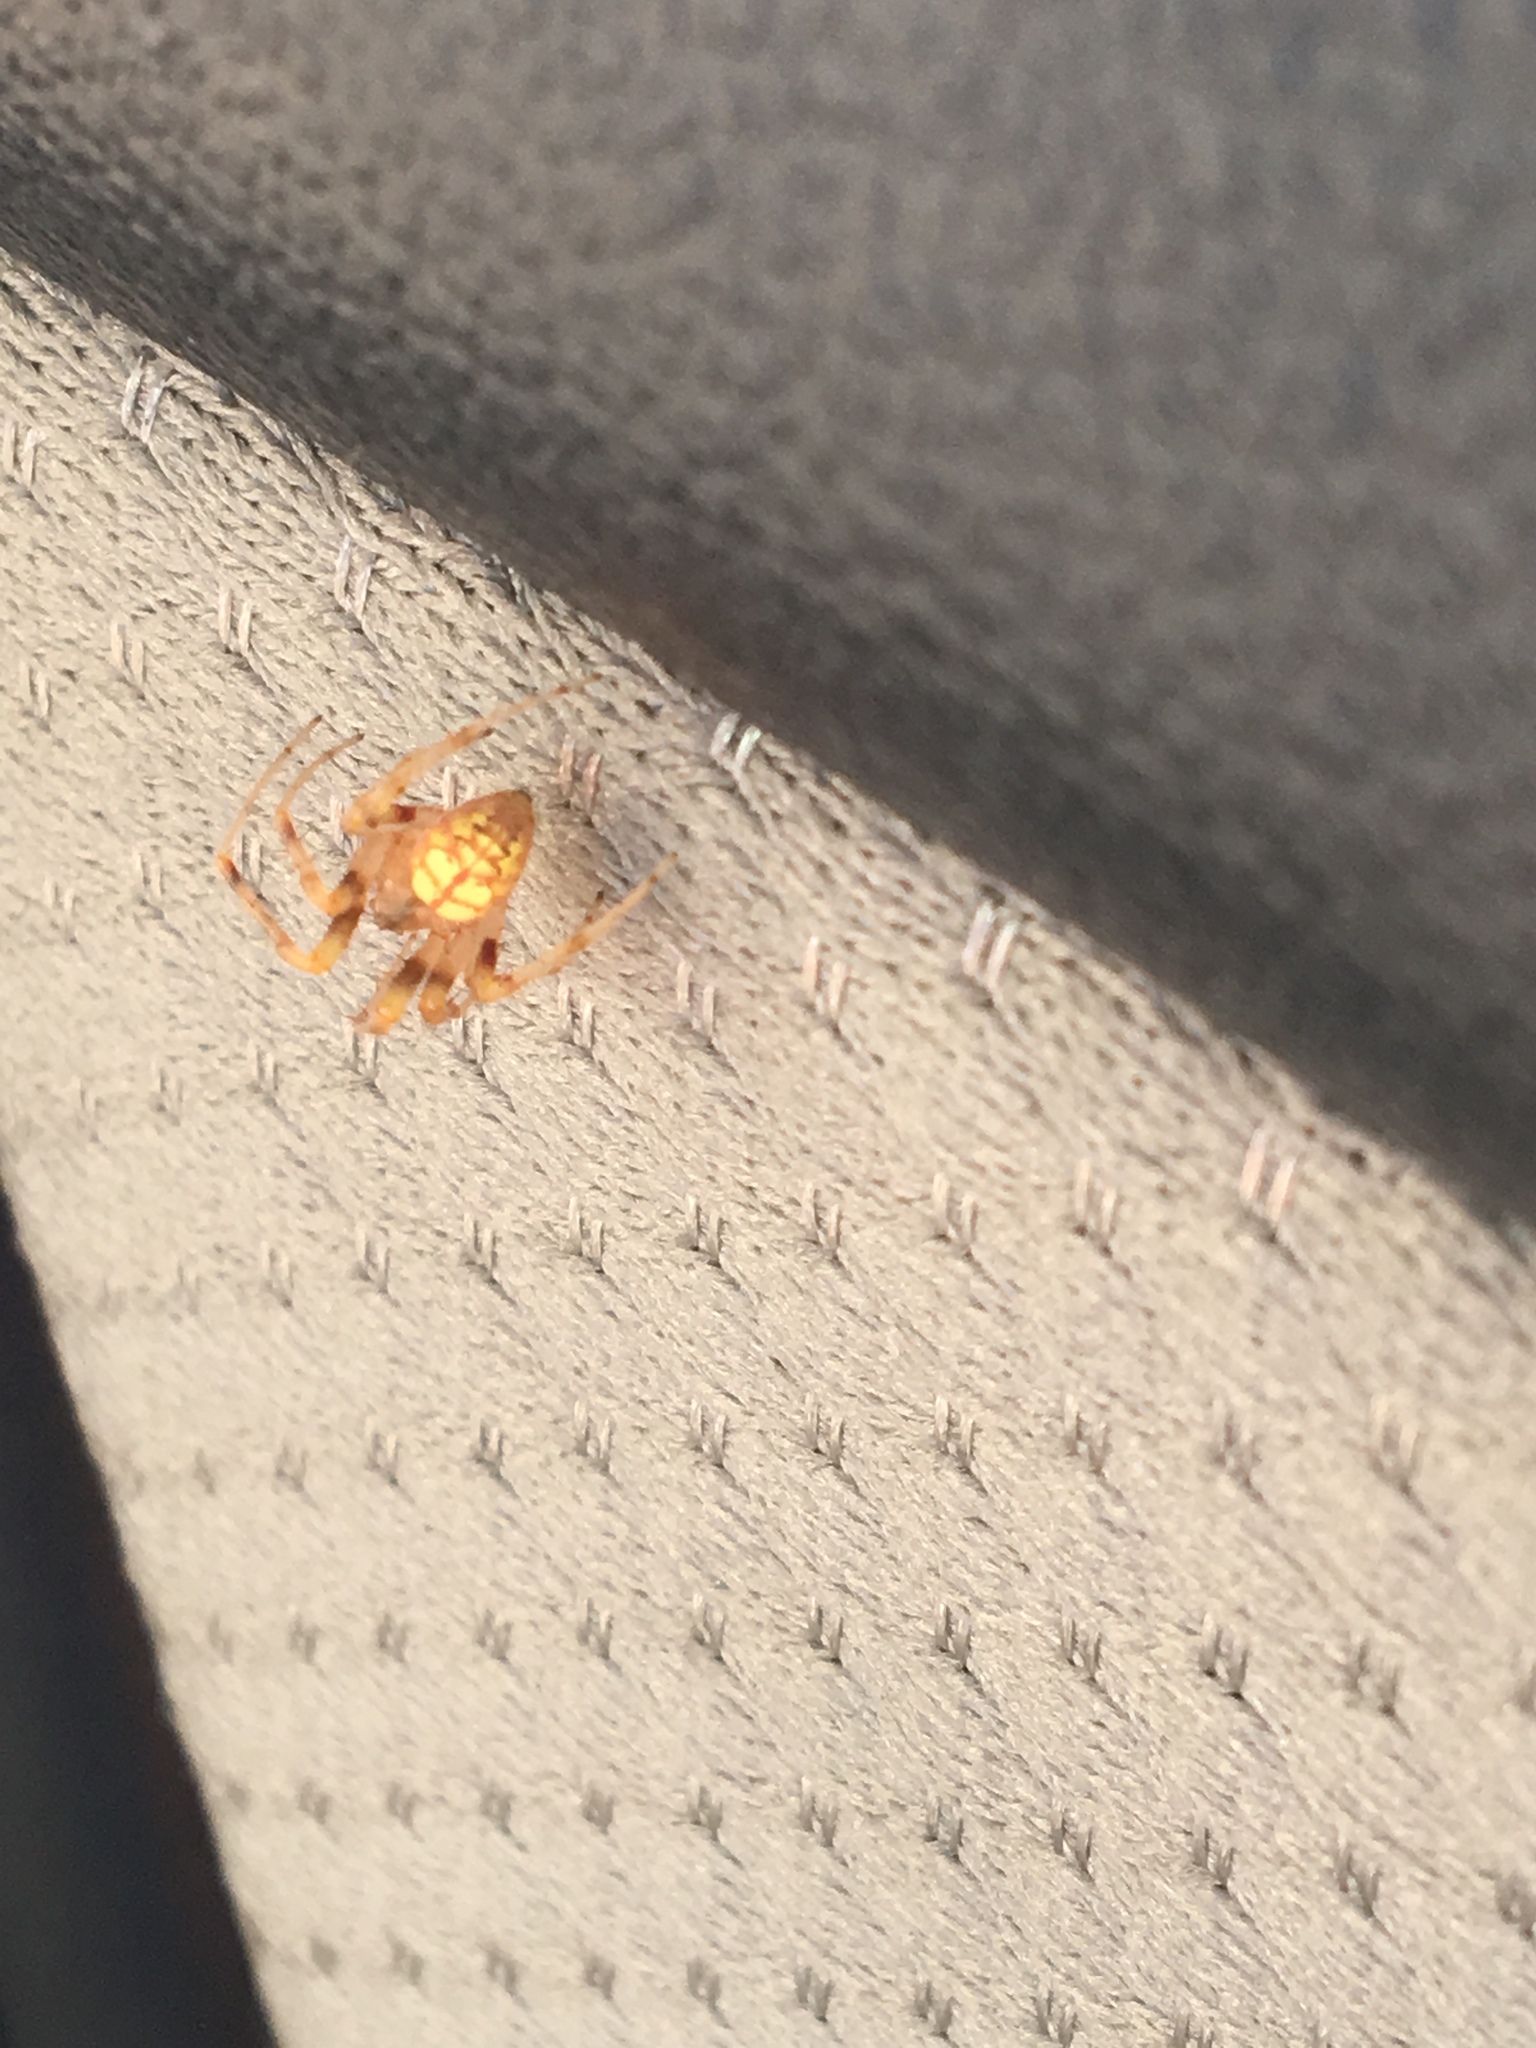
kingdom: Animalia
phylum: Arthropoda
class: Arachnida
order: Araneae
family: Araneidae
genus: Araneus
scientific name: Araneus thaddeus
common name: Lattice orbweaver
